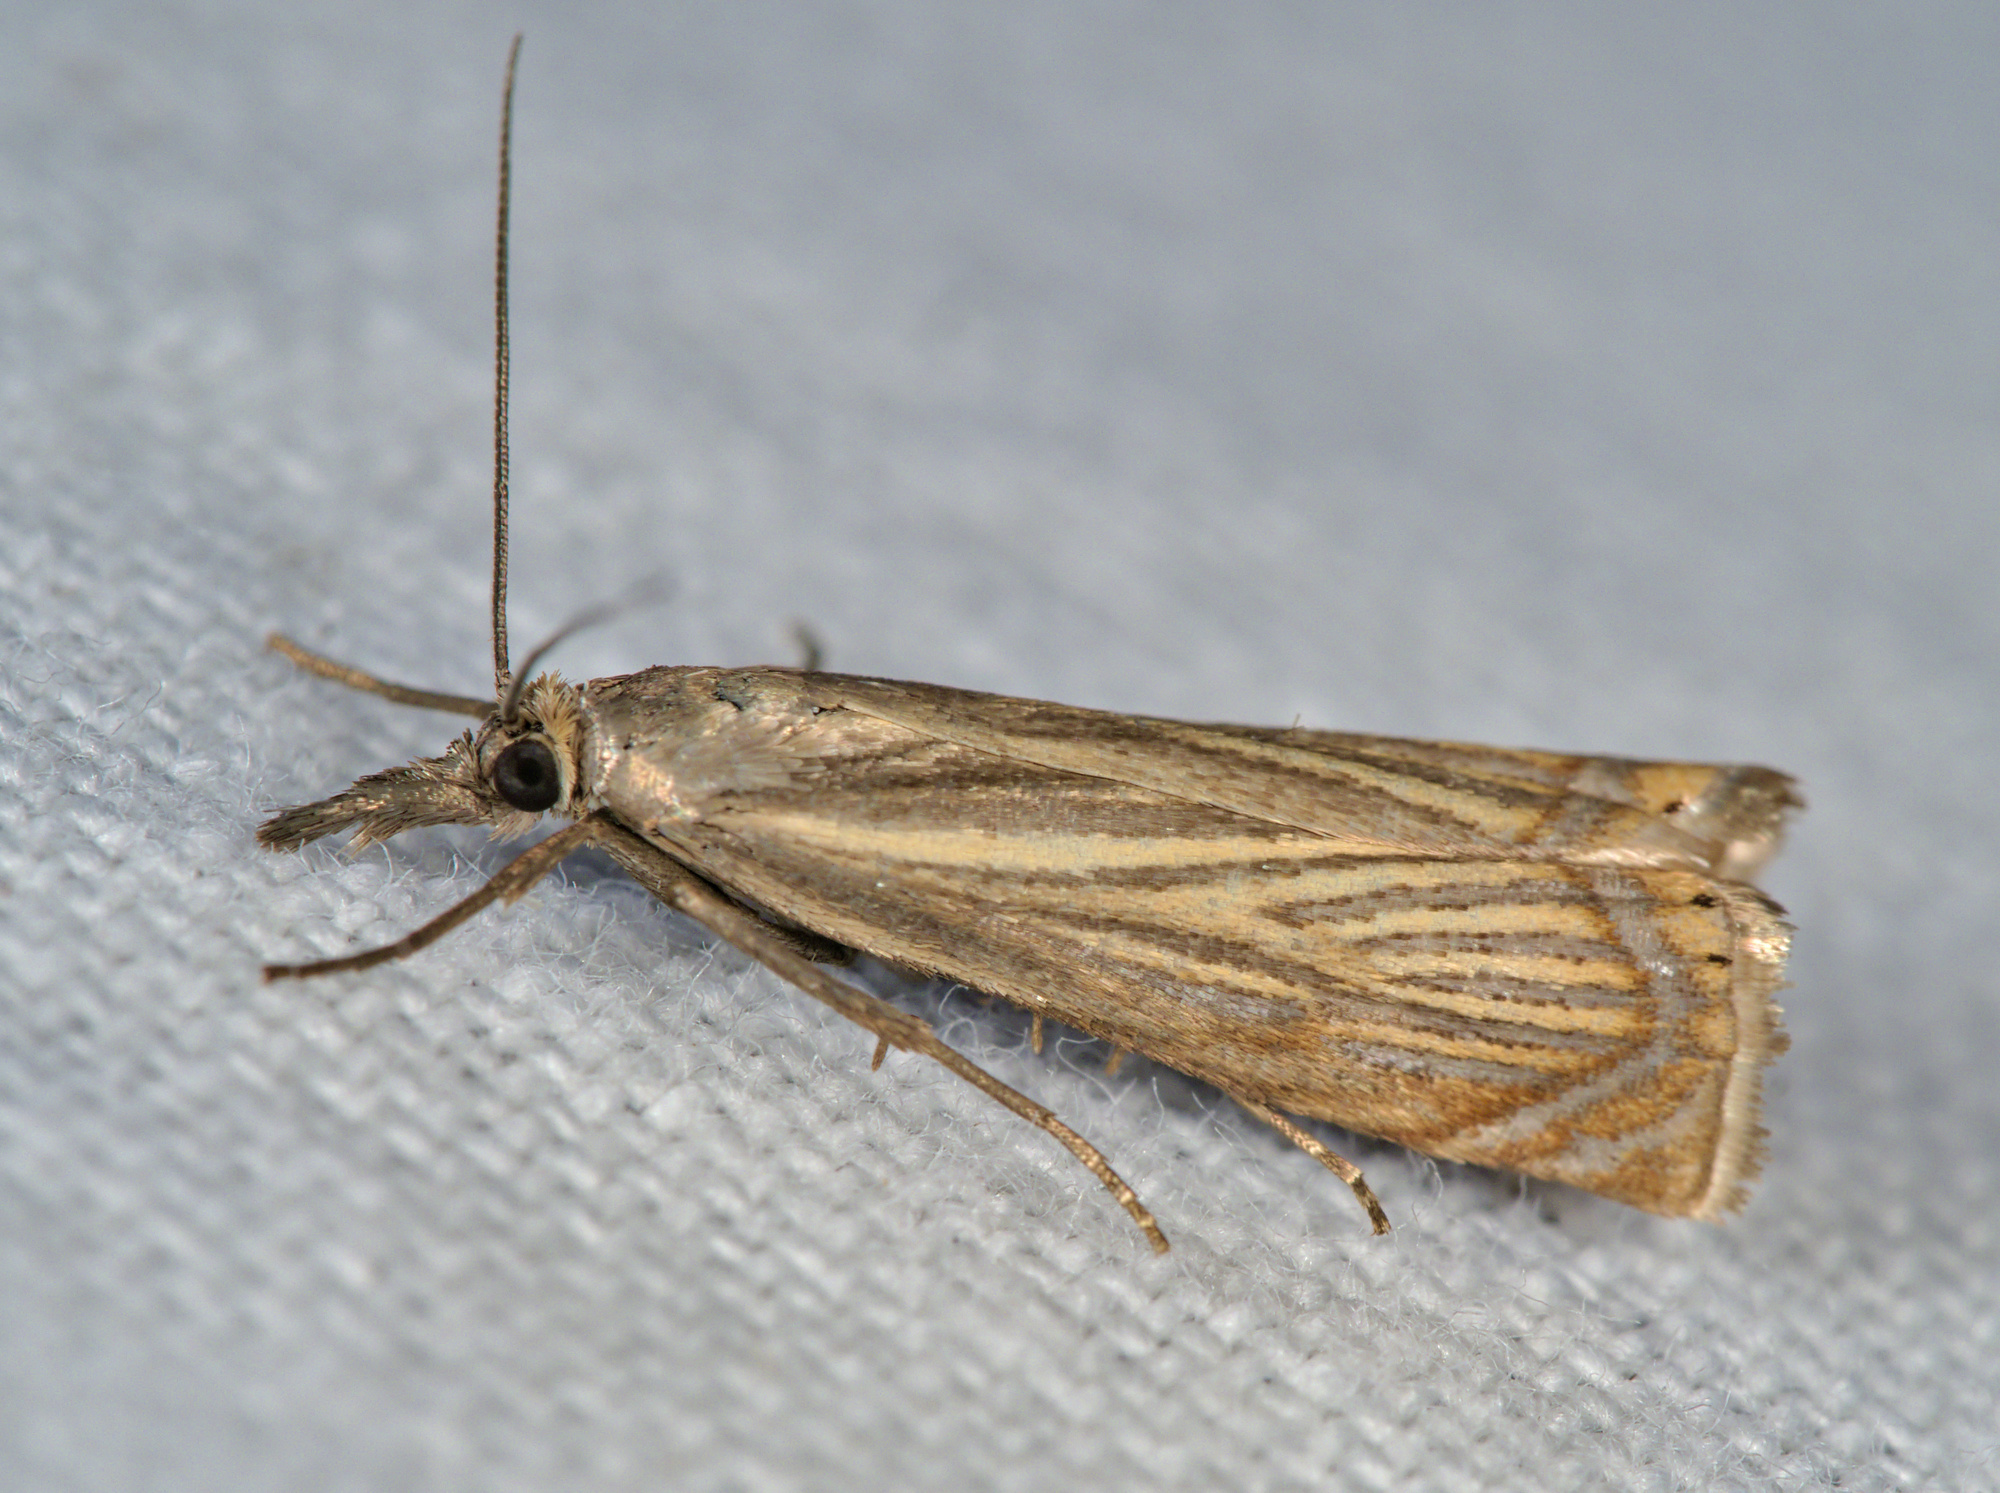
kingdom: Animalia
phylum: Arthropoda
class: Insecta
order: Lepidoptera
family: Crambidae
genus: Chrysoteuchia
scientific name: Chrysoteuchia culmella
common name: Garden grass-veneer
